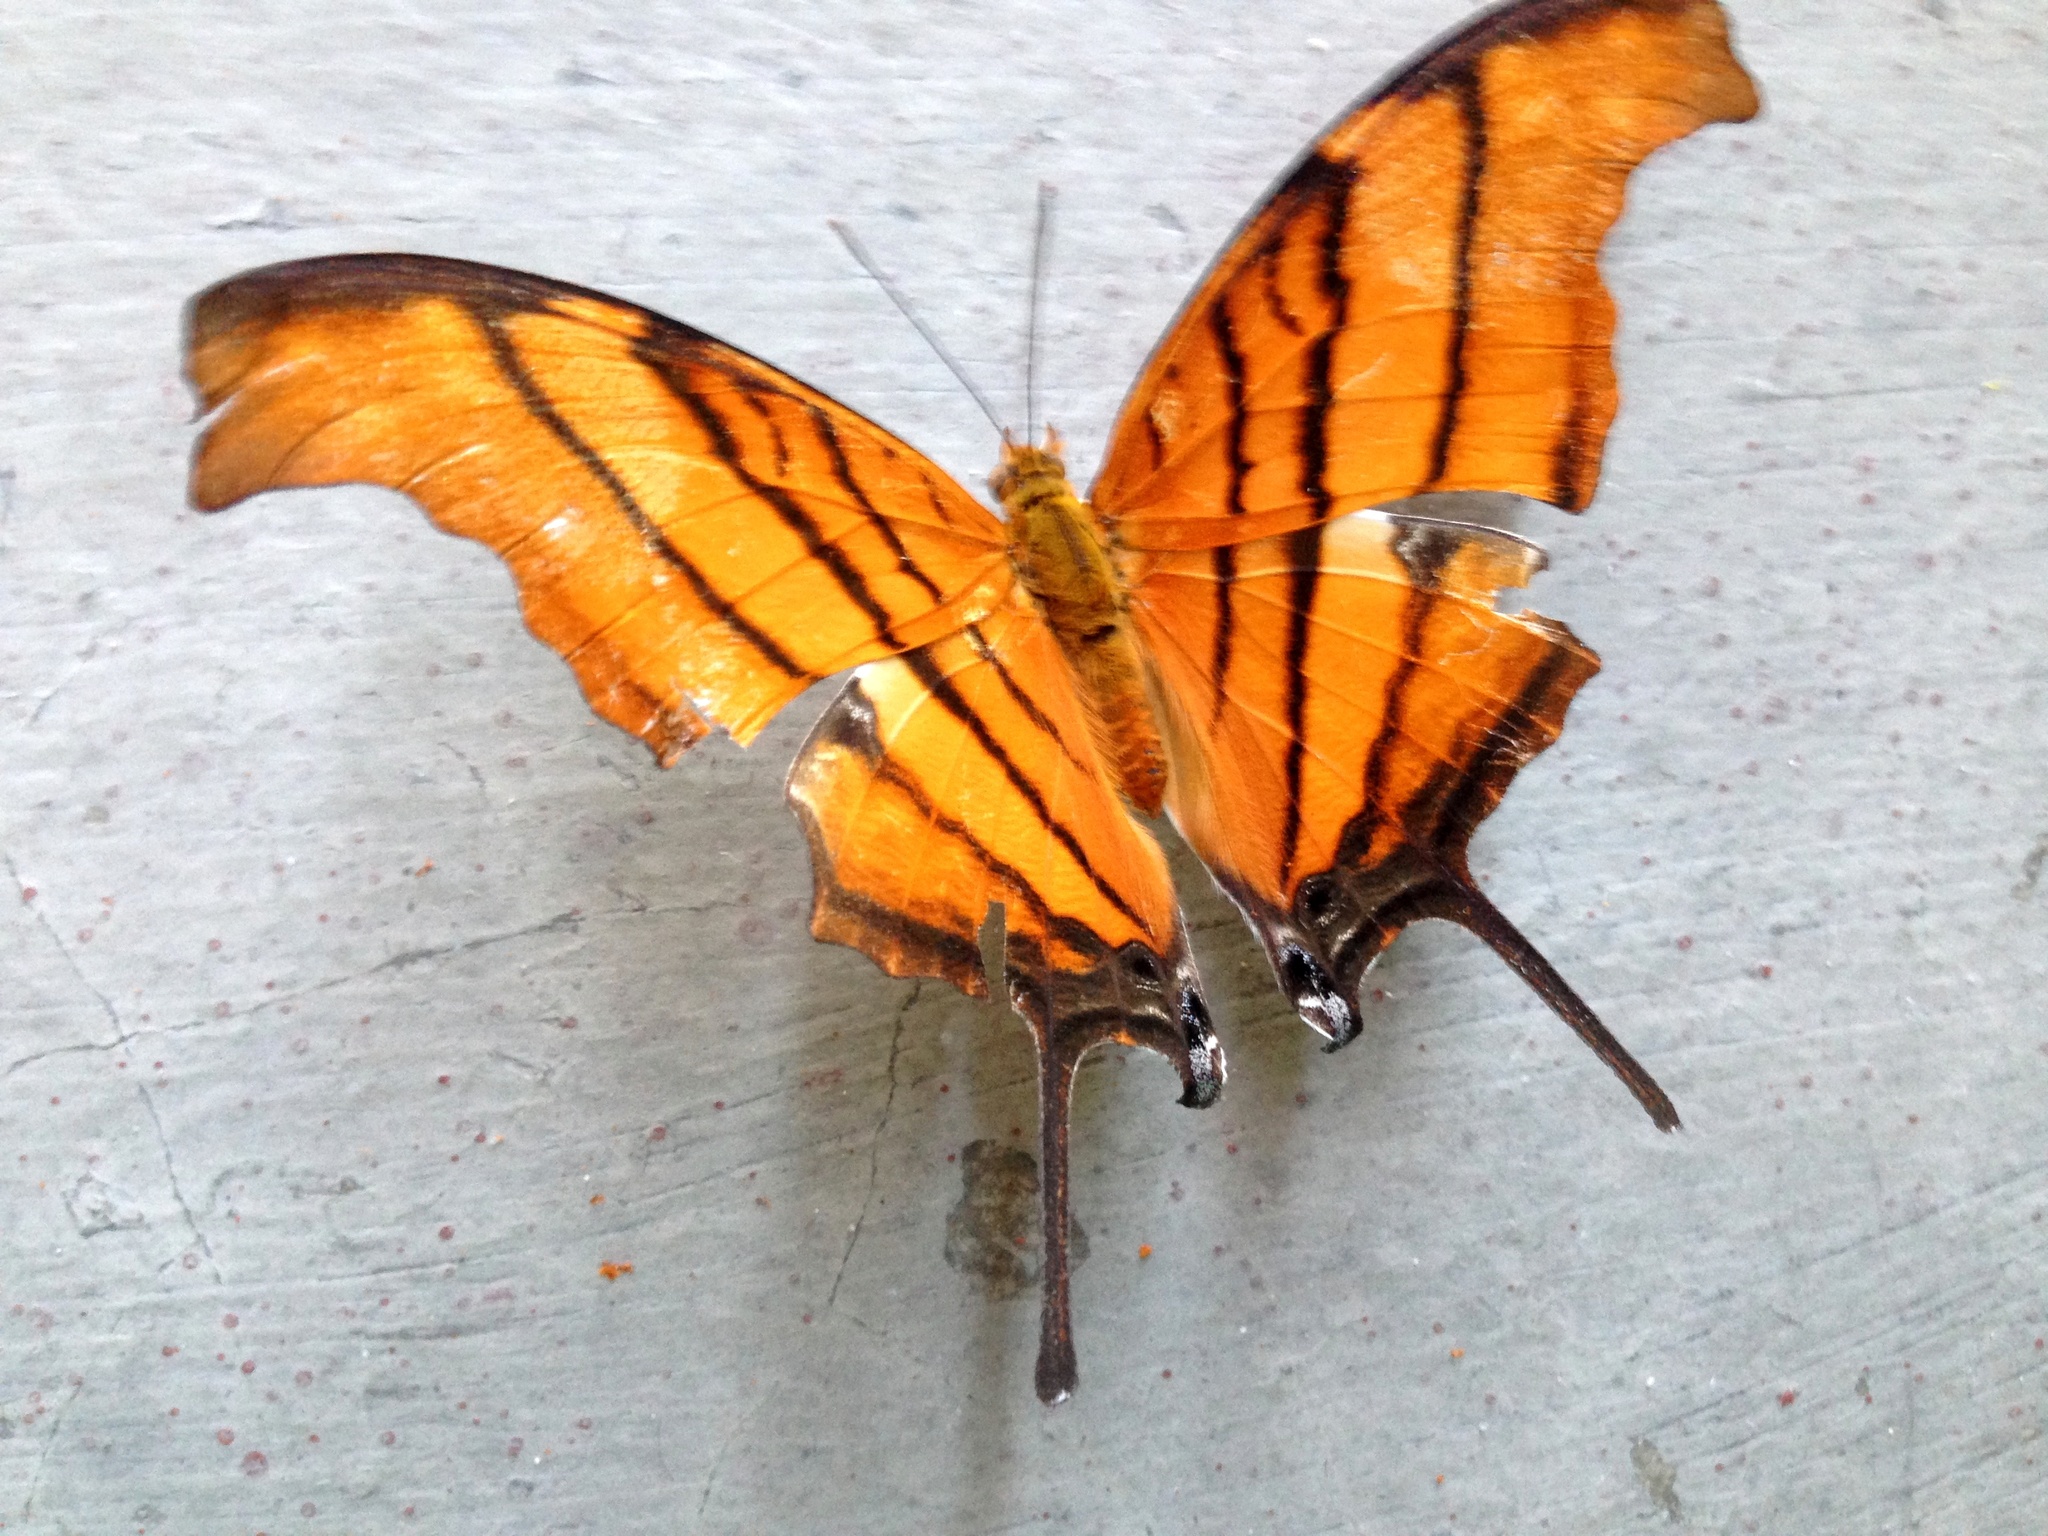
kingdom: Animalia
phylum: Arthropoda
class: Insecta
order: Lepidoptera
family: Nymphalidae
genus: Marpesia
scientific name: Marpesia petreus
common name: Red dagger wing
